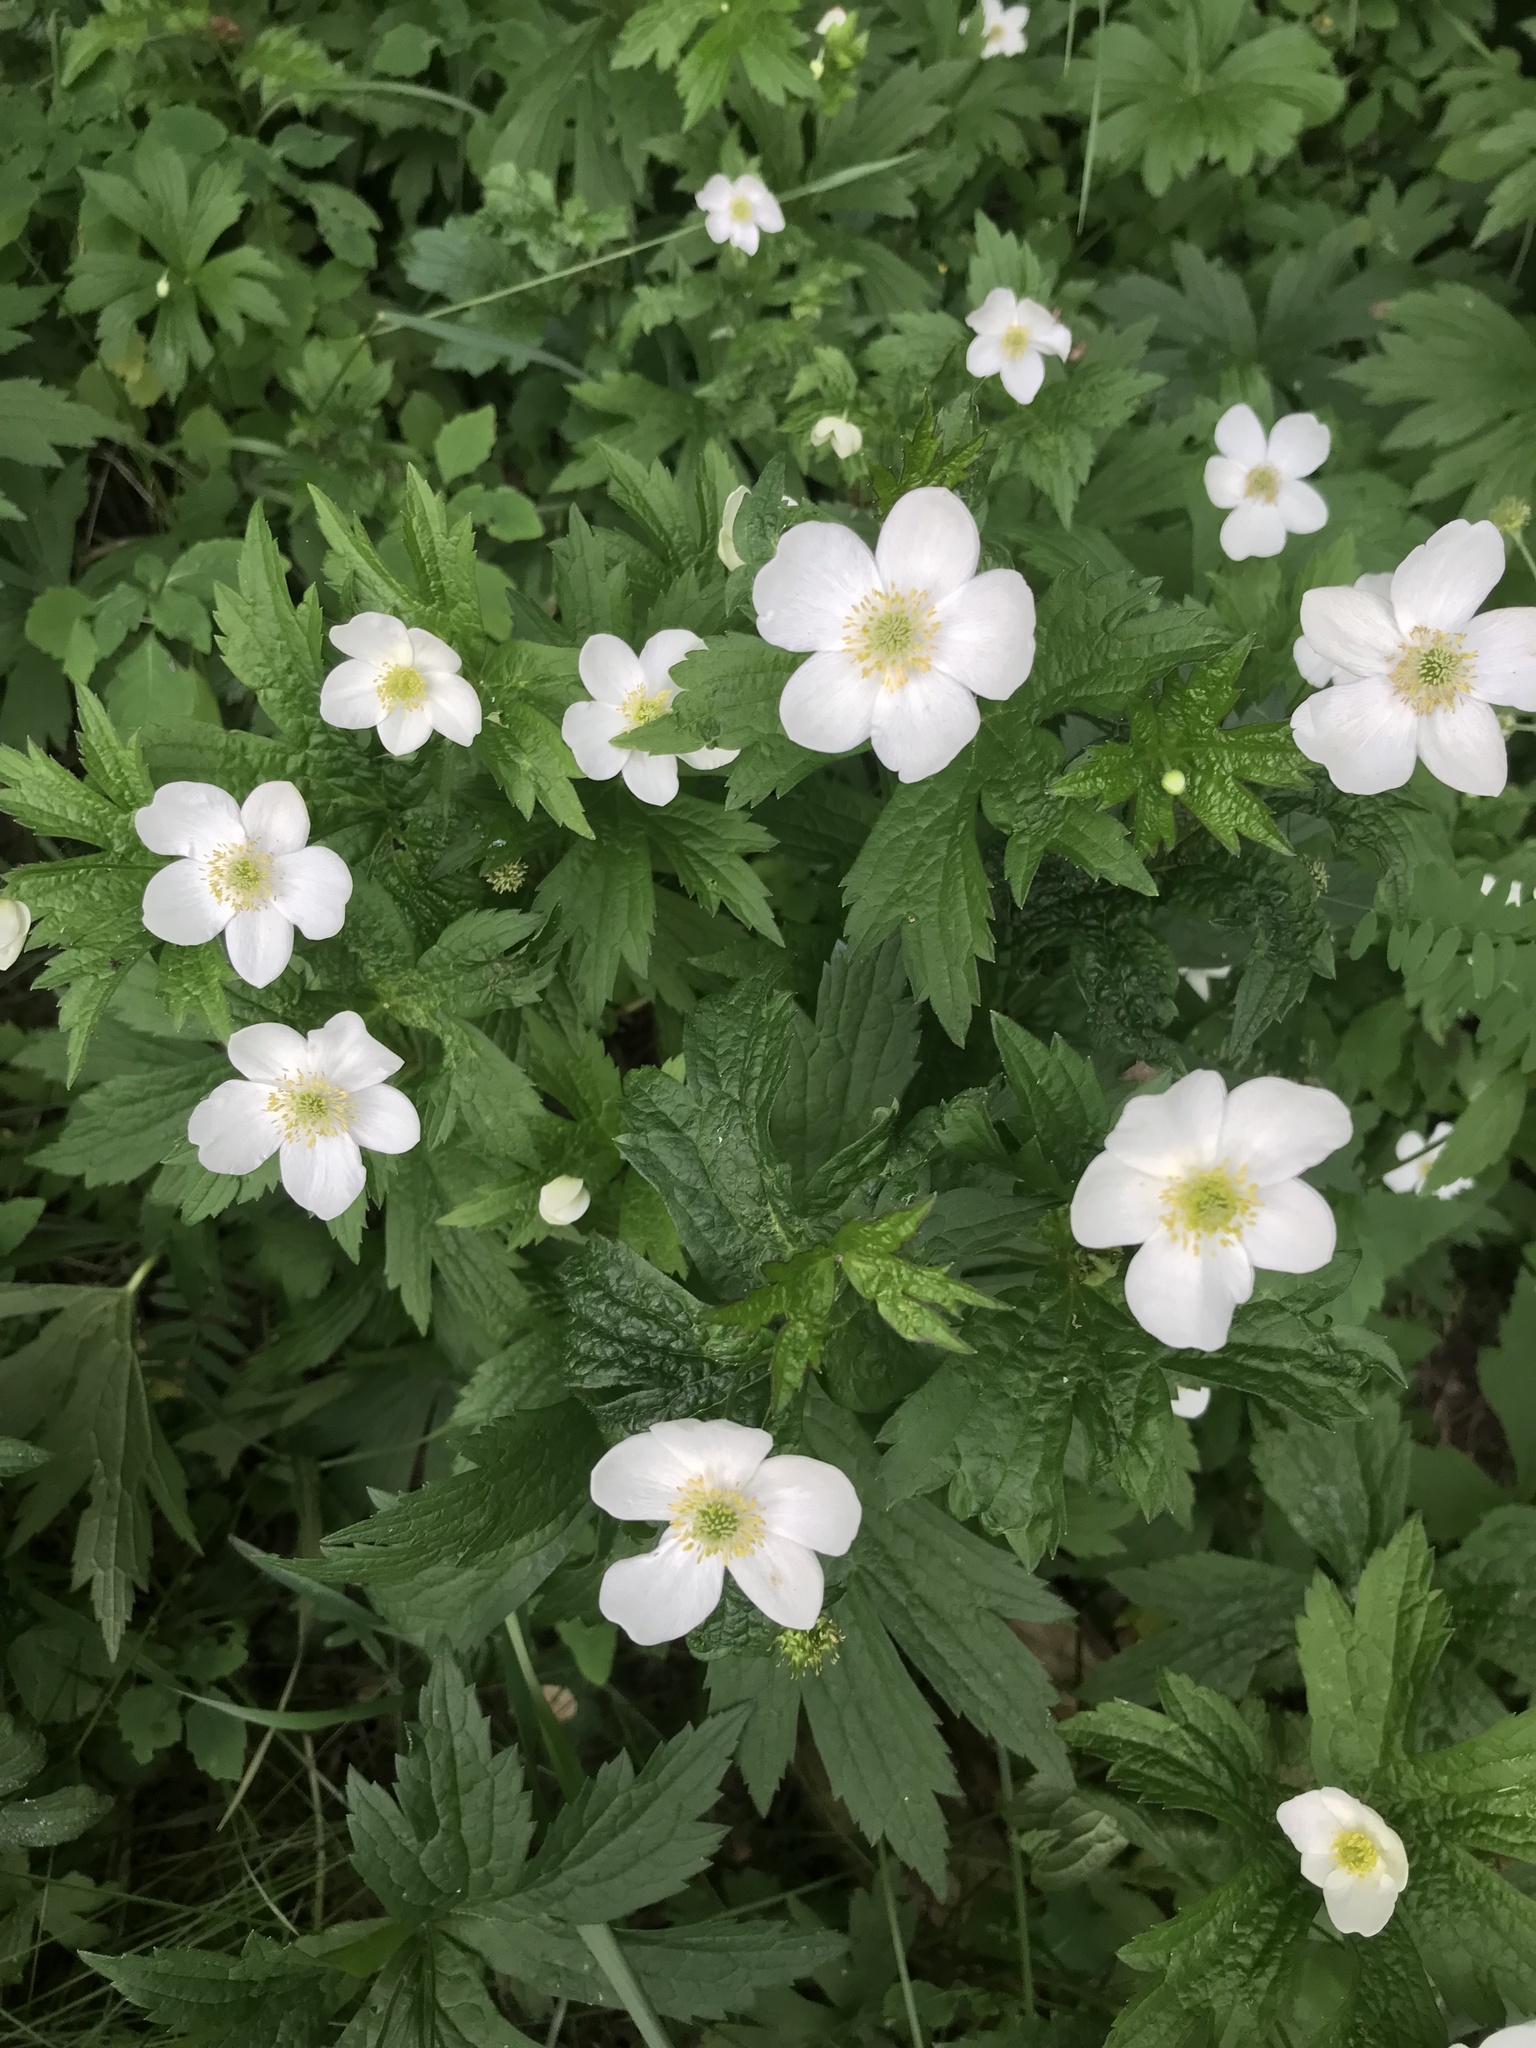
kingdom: Plantae
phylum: Tracheophyta
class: Magnoliopsida
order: Ranunculales
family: Ranunculaceae
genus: Anemonastrum
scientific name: Anemonastrum canadense
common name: Canada anemone
